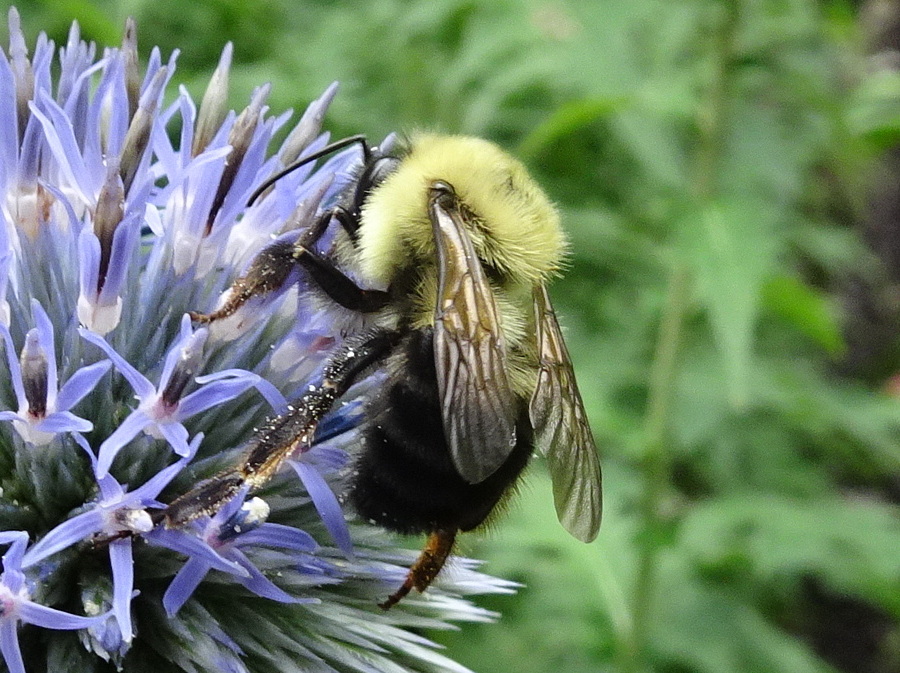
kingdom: Animalia
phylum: Arthropoda
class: Insecta
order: Hymenoptera
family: Apidae
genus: Bombus
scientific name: Bombus bimaculatus
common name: Two-spotted bumble bee
